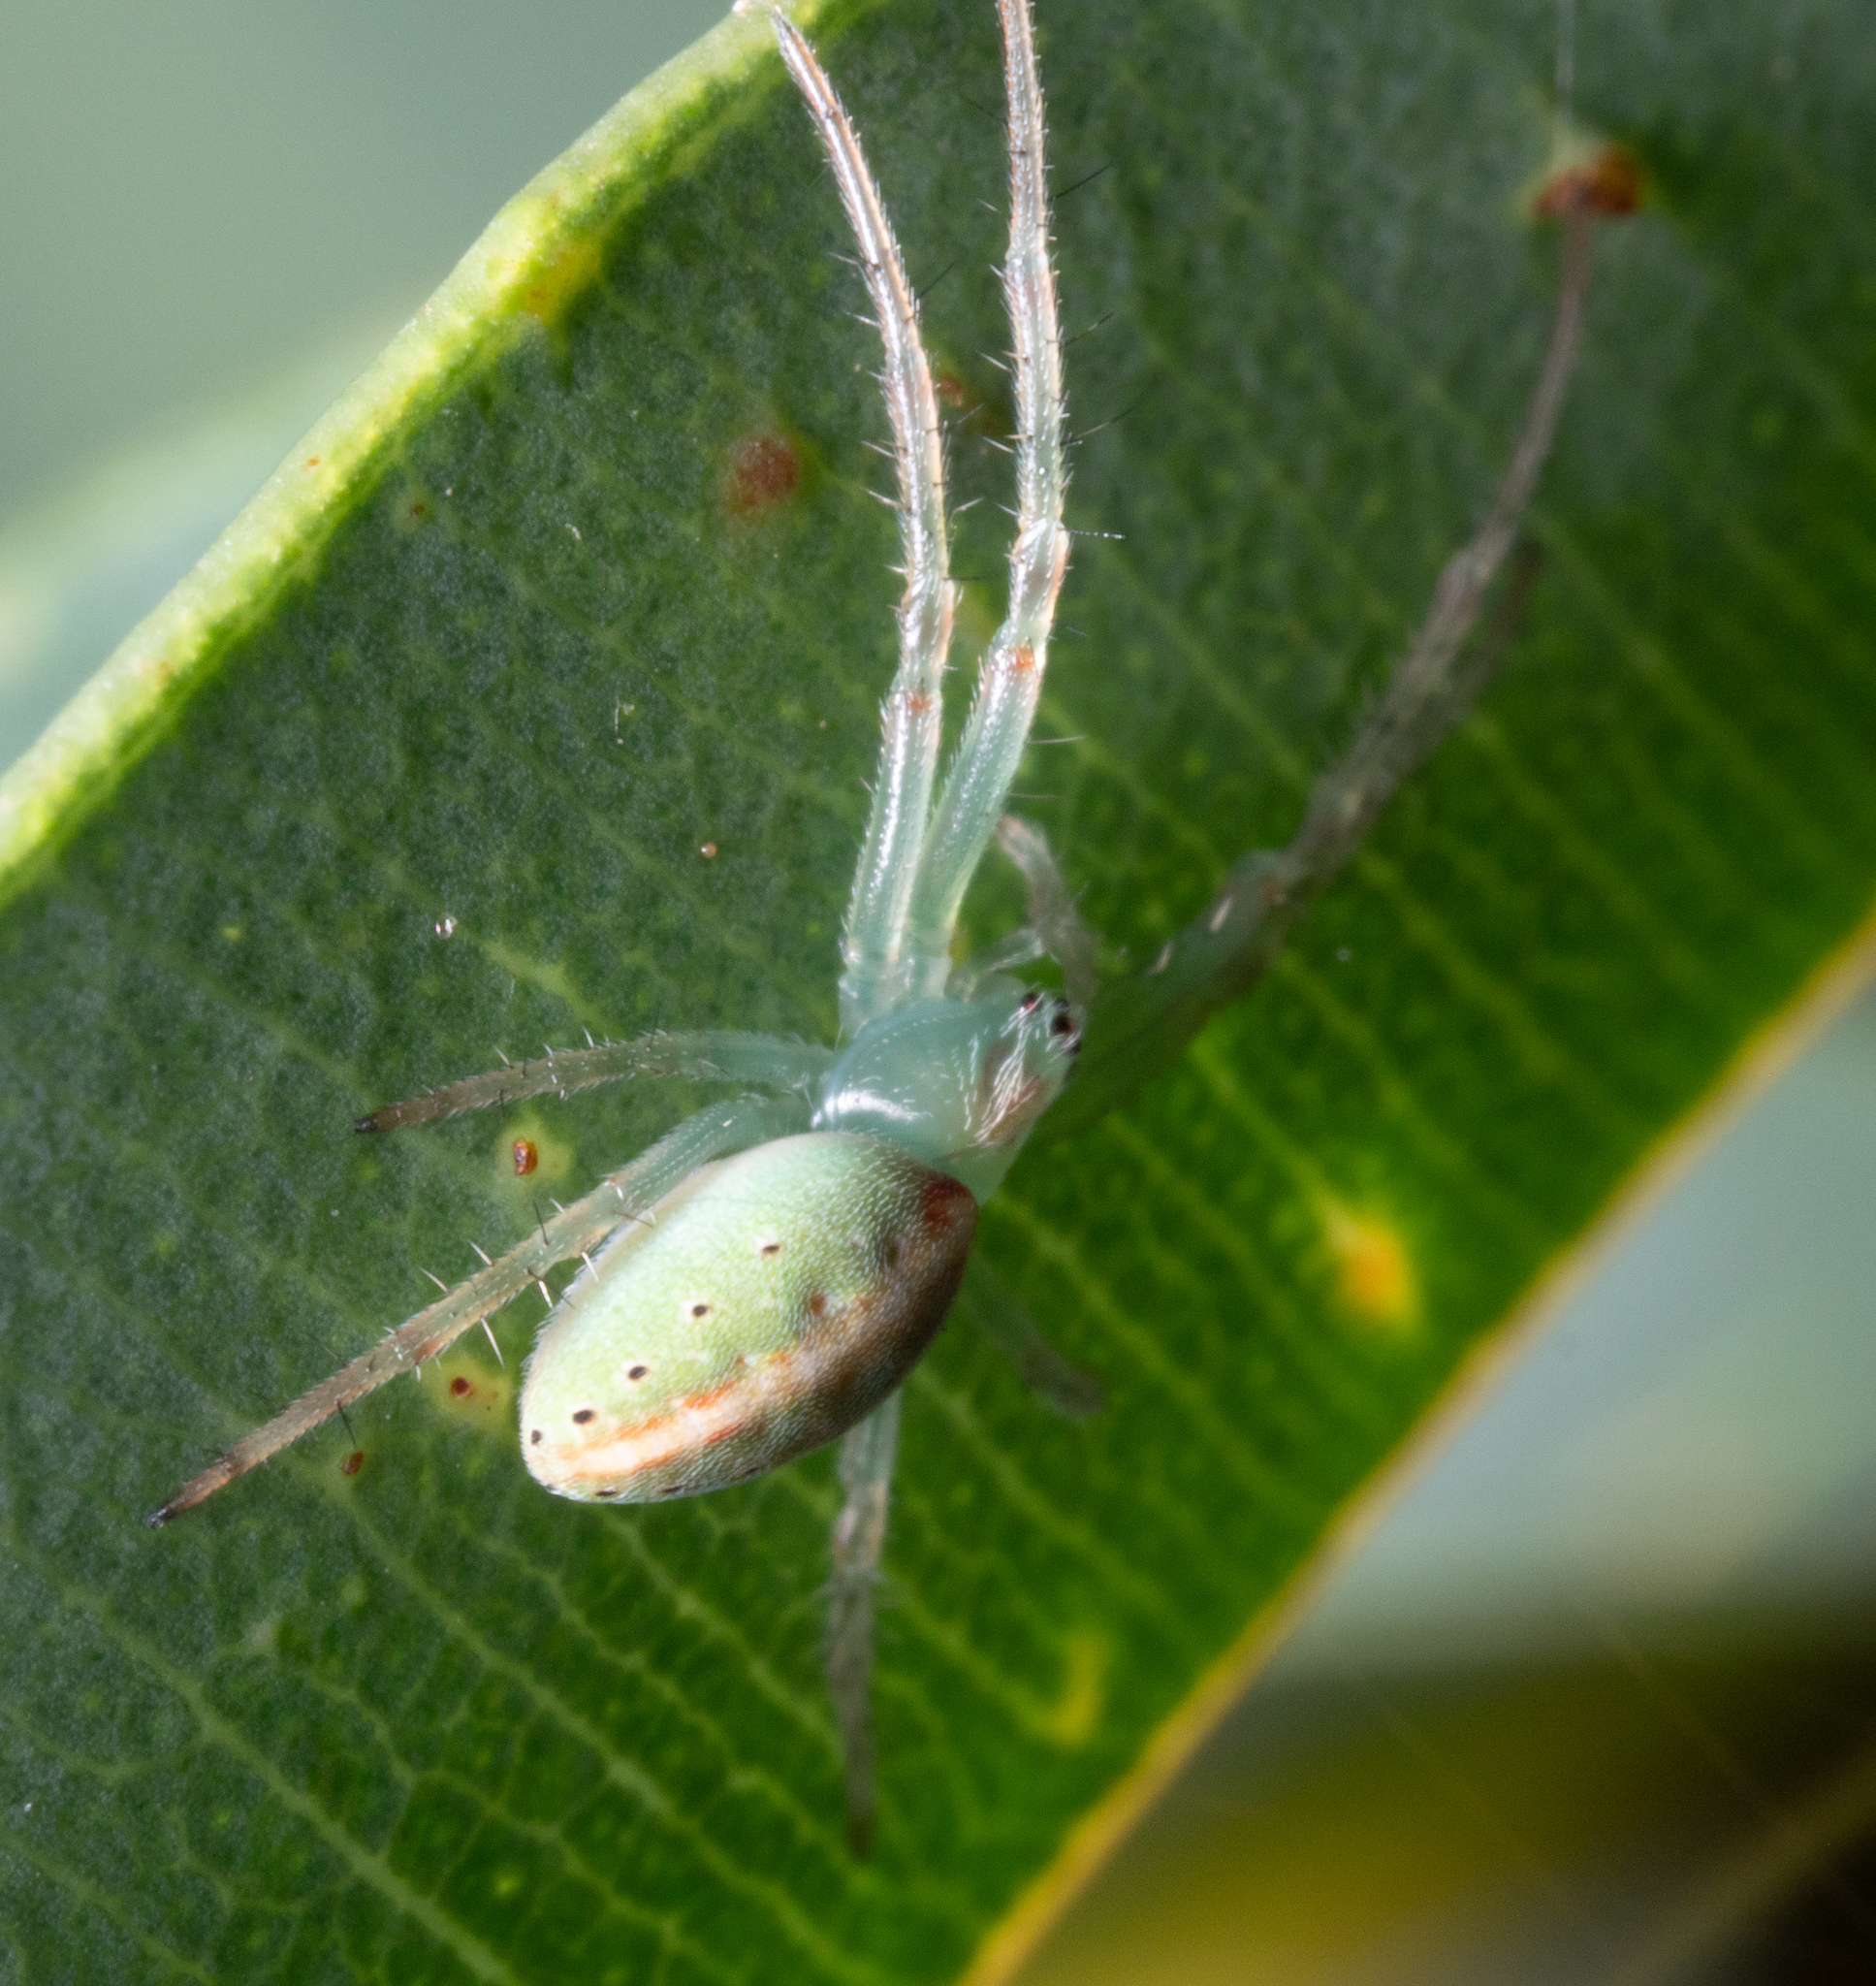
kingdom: Animalia
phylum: Arthropoda
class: Arachnida
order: Araneae
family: Araneidae
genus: Araneus
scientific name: Araneus talipedatus
